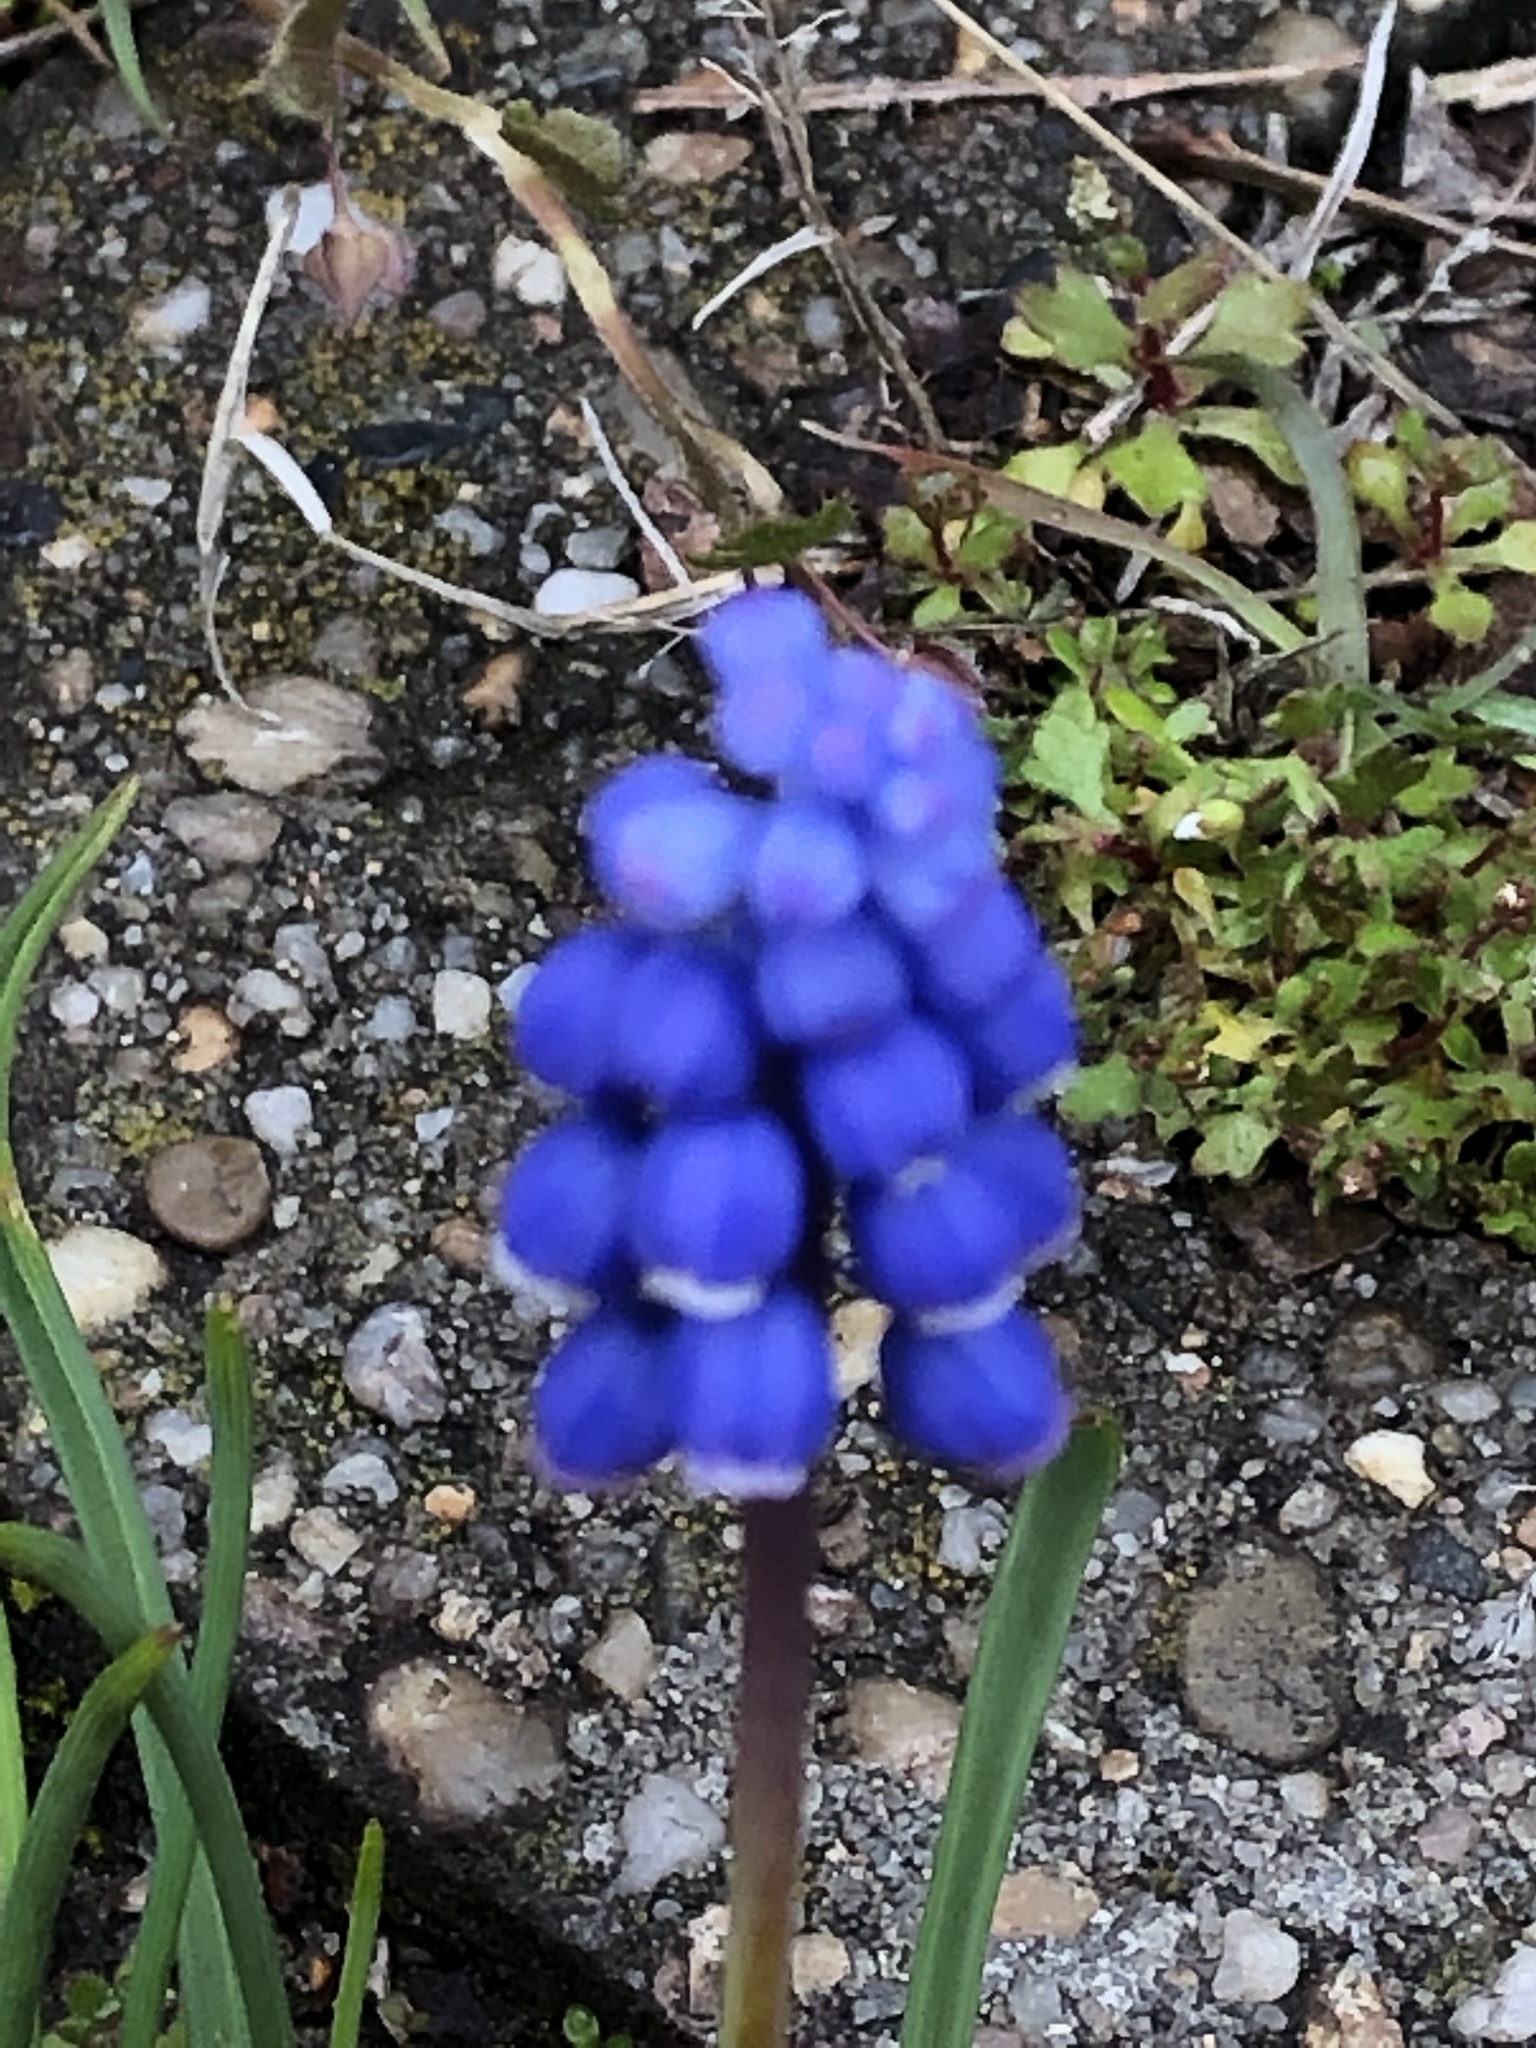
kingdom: Plantae
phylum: Tracheophyta
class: Liliopsida
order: Asparagales
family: Asparagaceae
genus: Muscari
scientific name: Muscari botryoides
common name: Compact grape-hyacinth
